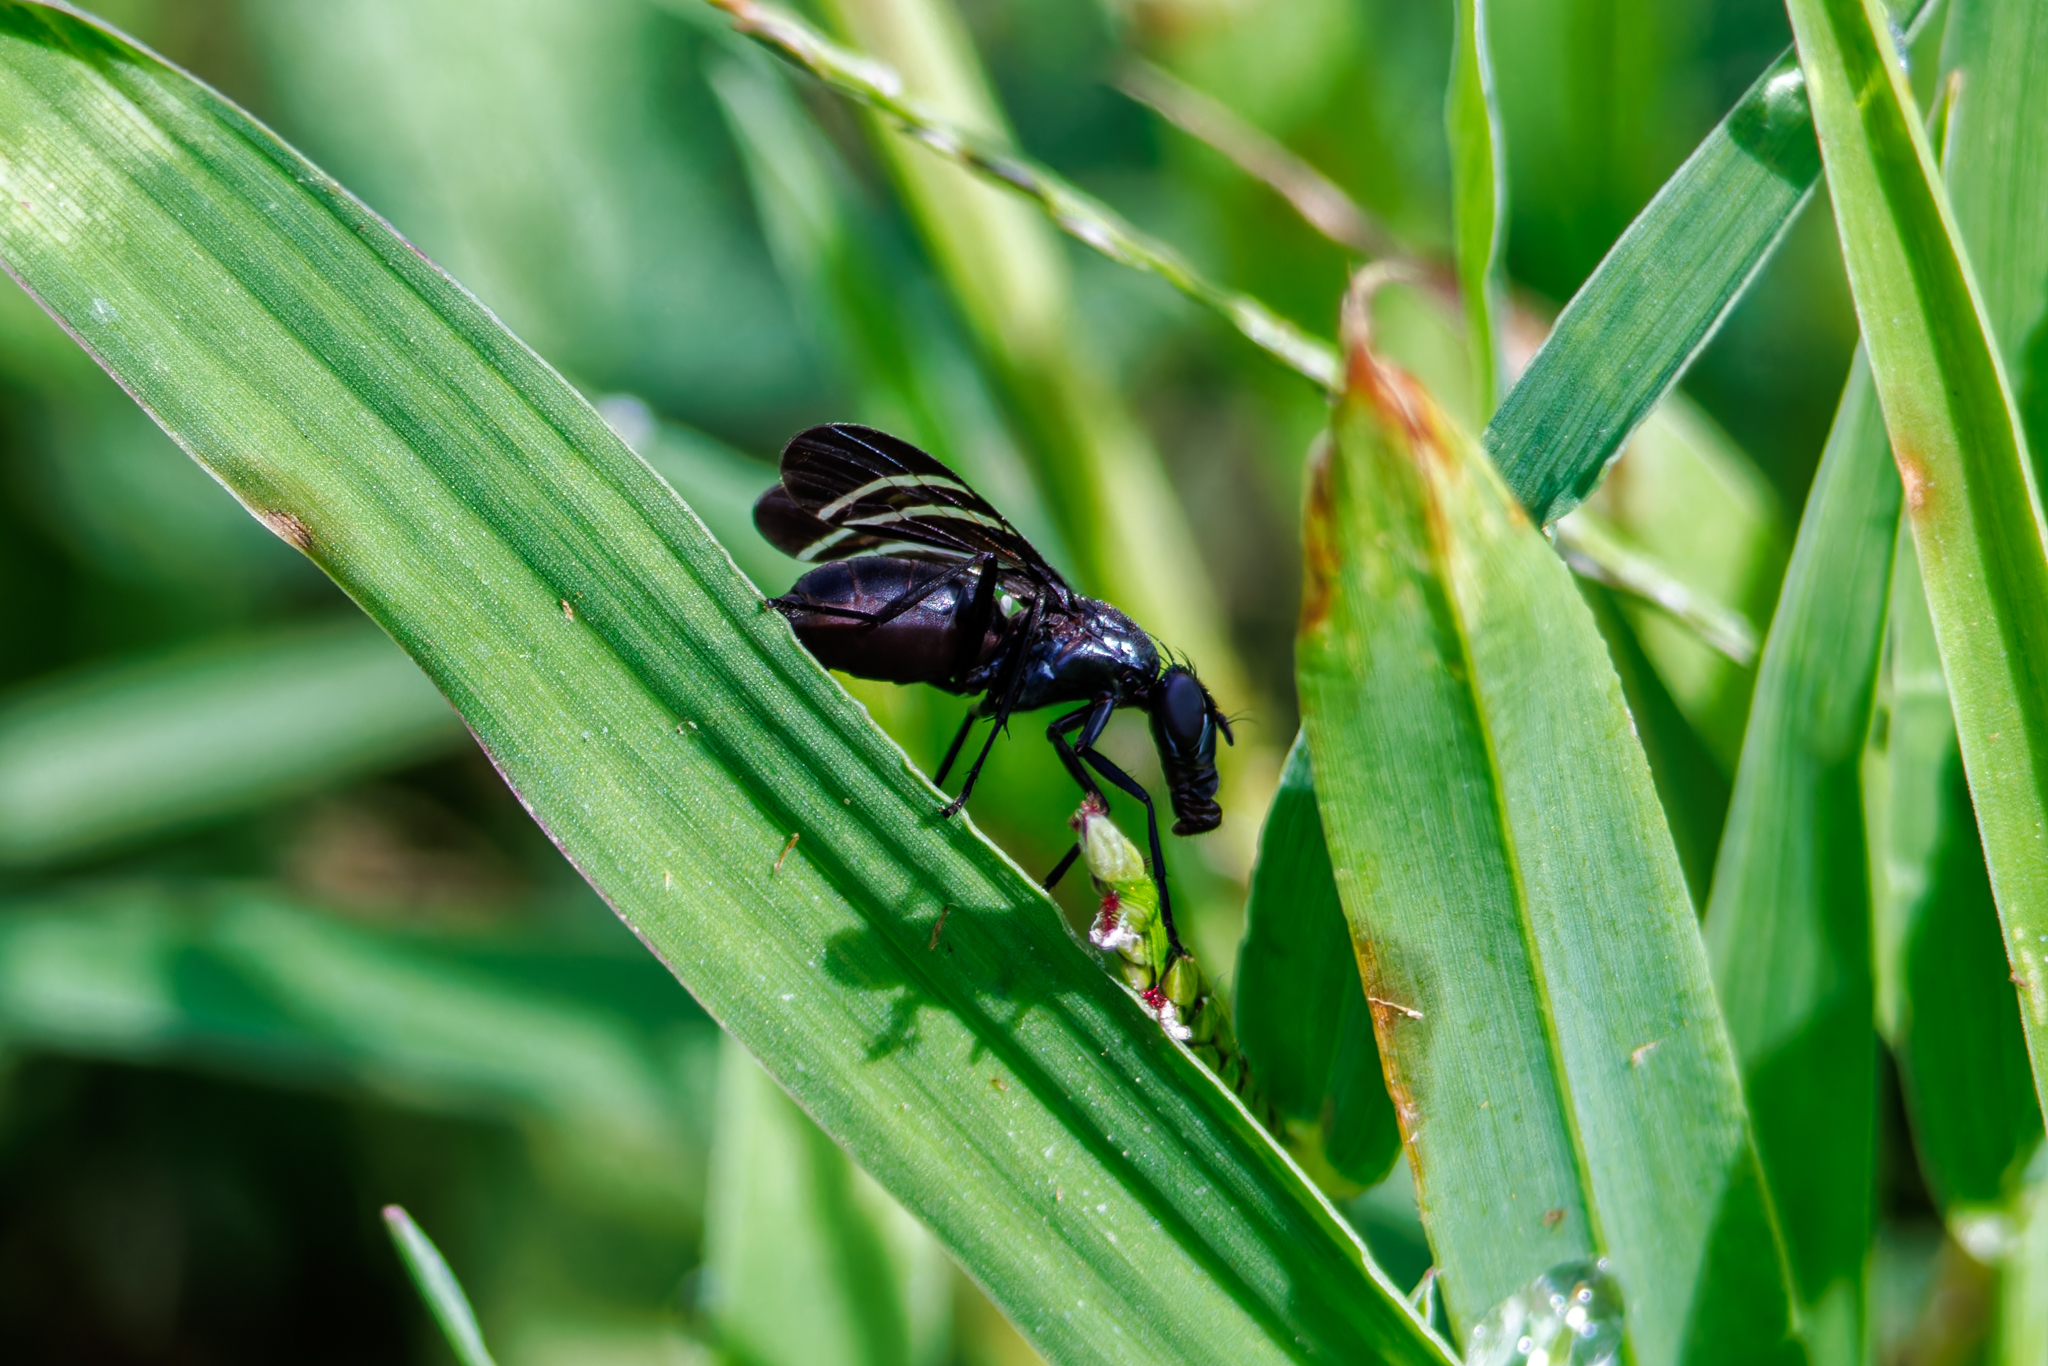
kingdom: Animalia
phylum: Arthropoda
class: Insecta
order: Diptera
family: Ulidiidae
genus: Tritoxa
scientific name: Tritoxa flexa
